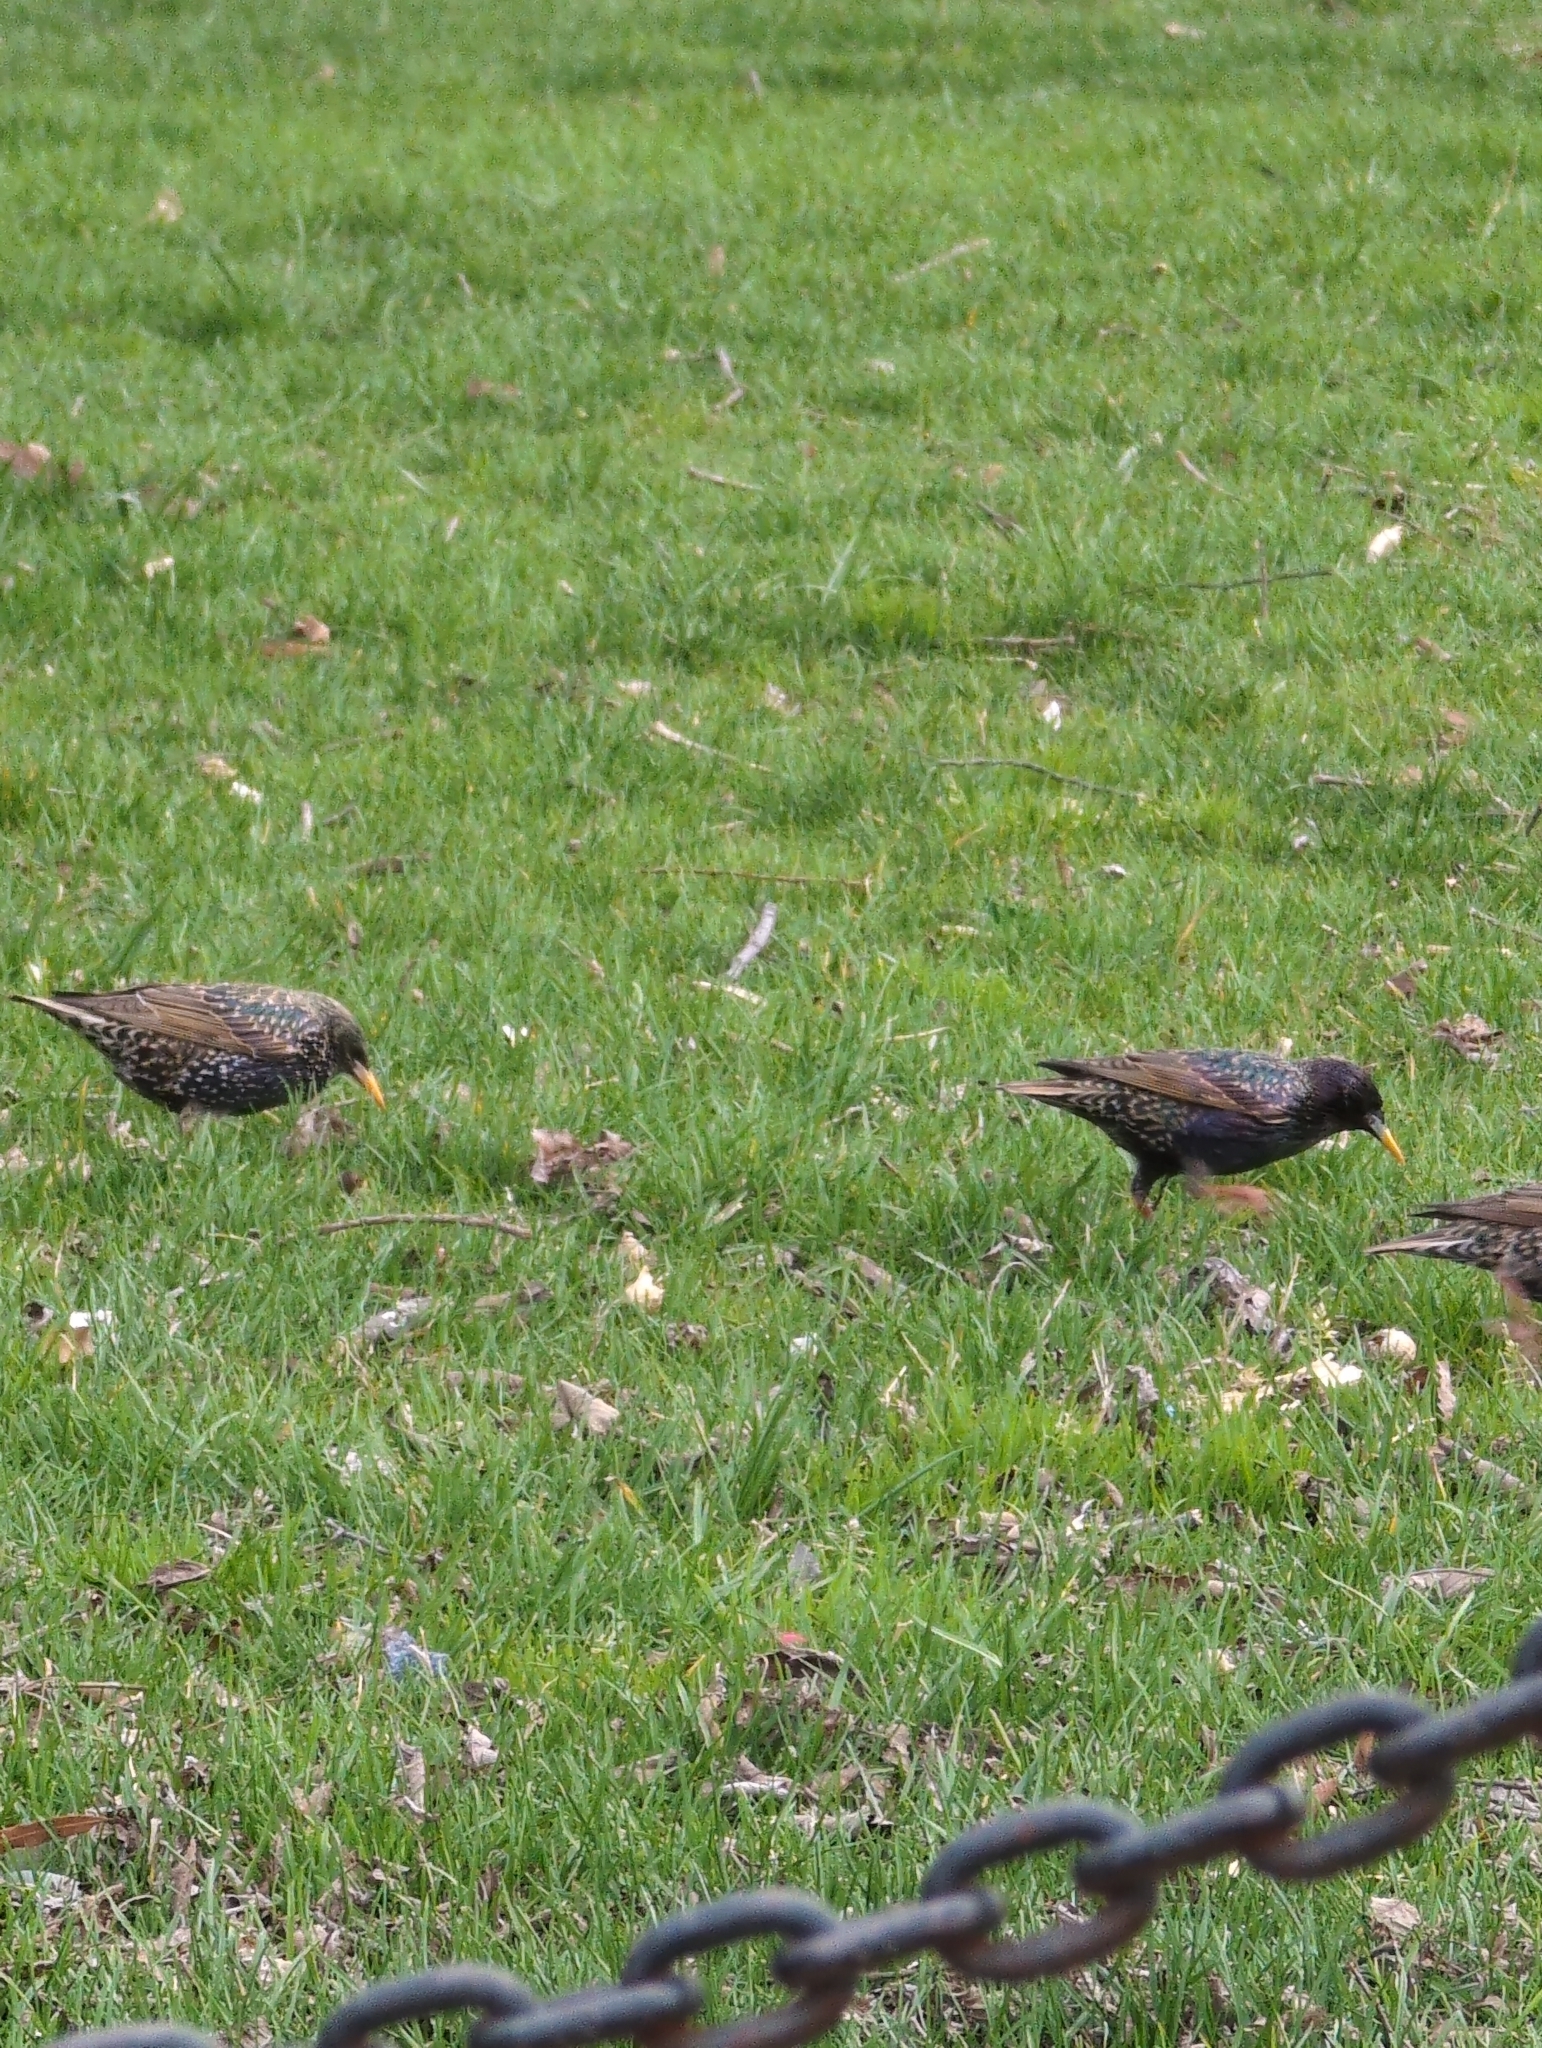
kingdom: Animalia
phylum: Chordata
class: Aves
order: Passeriformes
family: Sturnidae
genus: Sturnus
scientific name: Sturnus vulgaris
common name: Common starling
